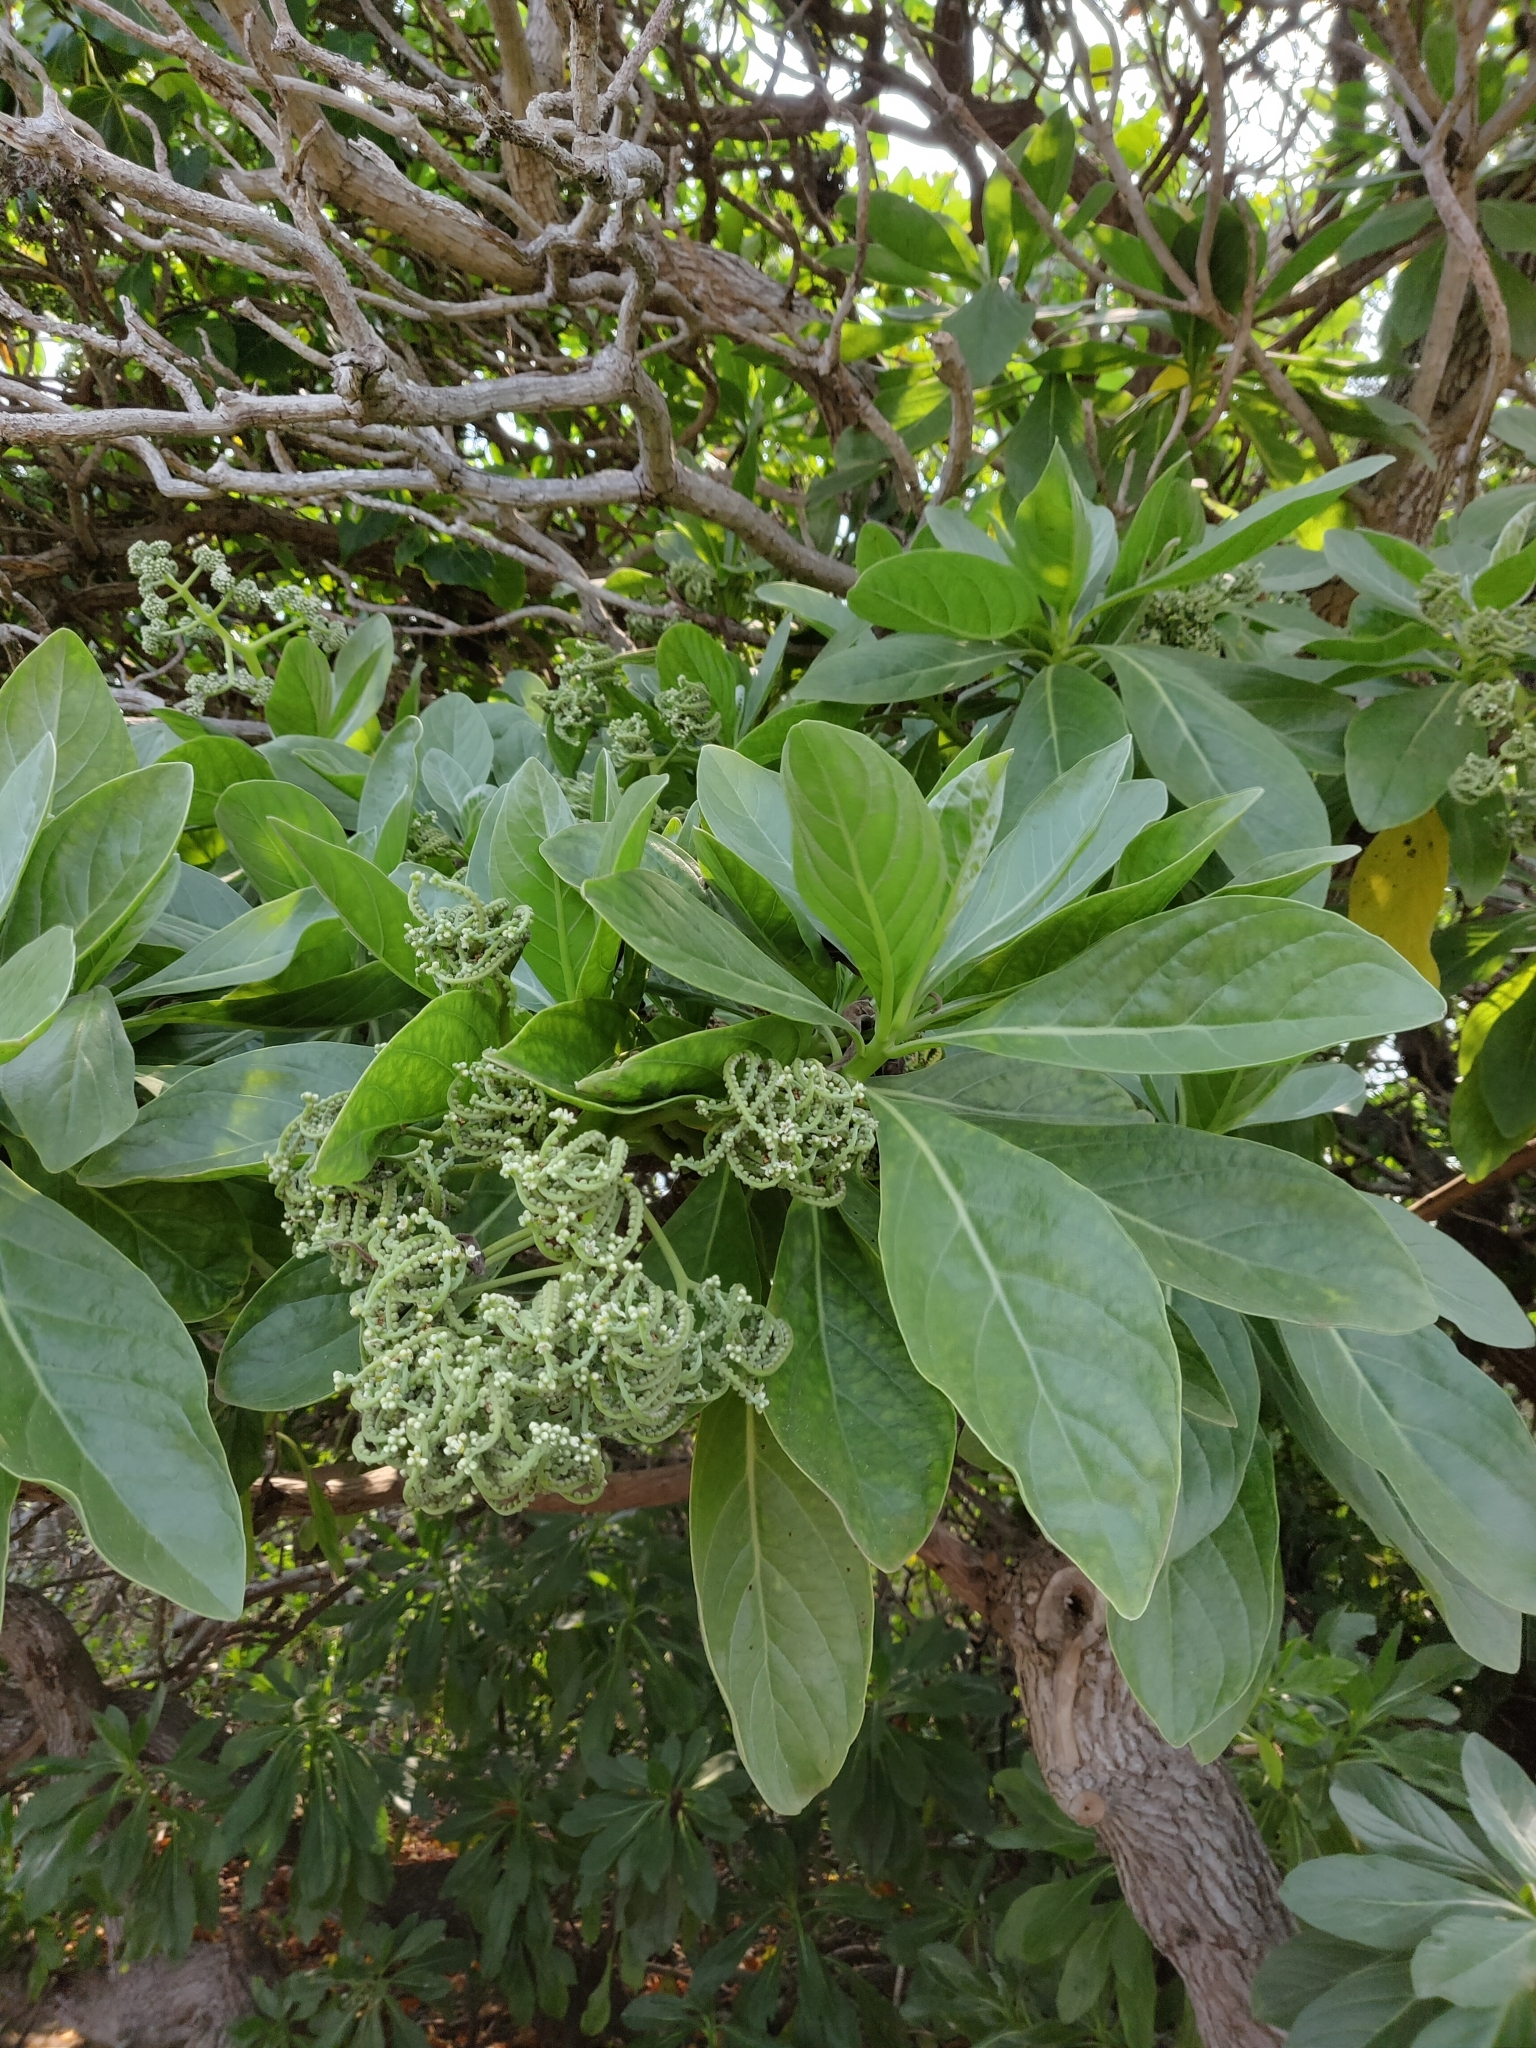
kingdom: Plantae
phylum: Tracheophyta
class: Magnoliopsida
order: Boraginales
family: Heliotropiaceae
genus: Heliotropium
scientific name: Heliotropium velutinum
